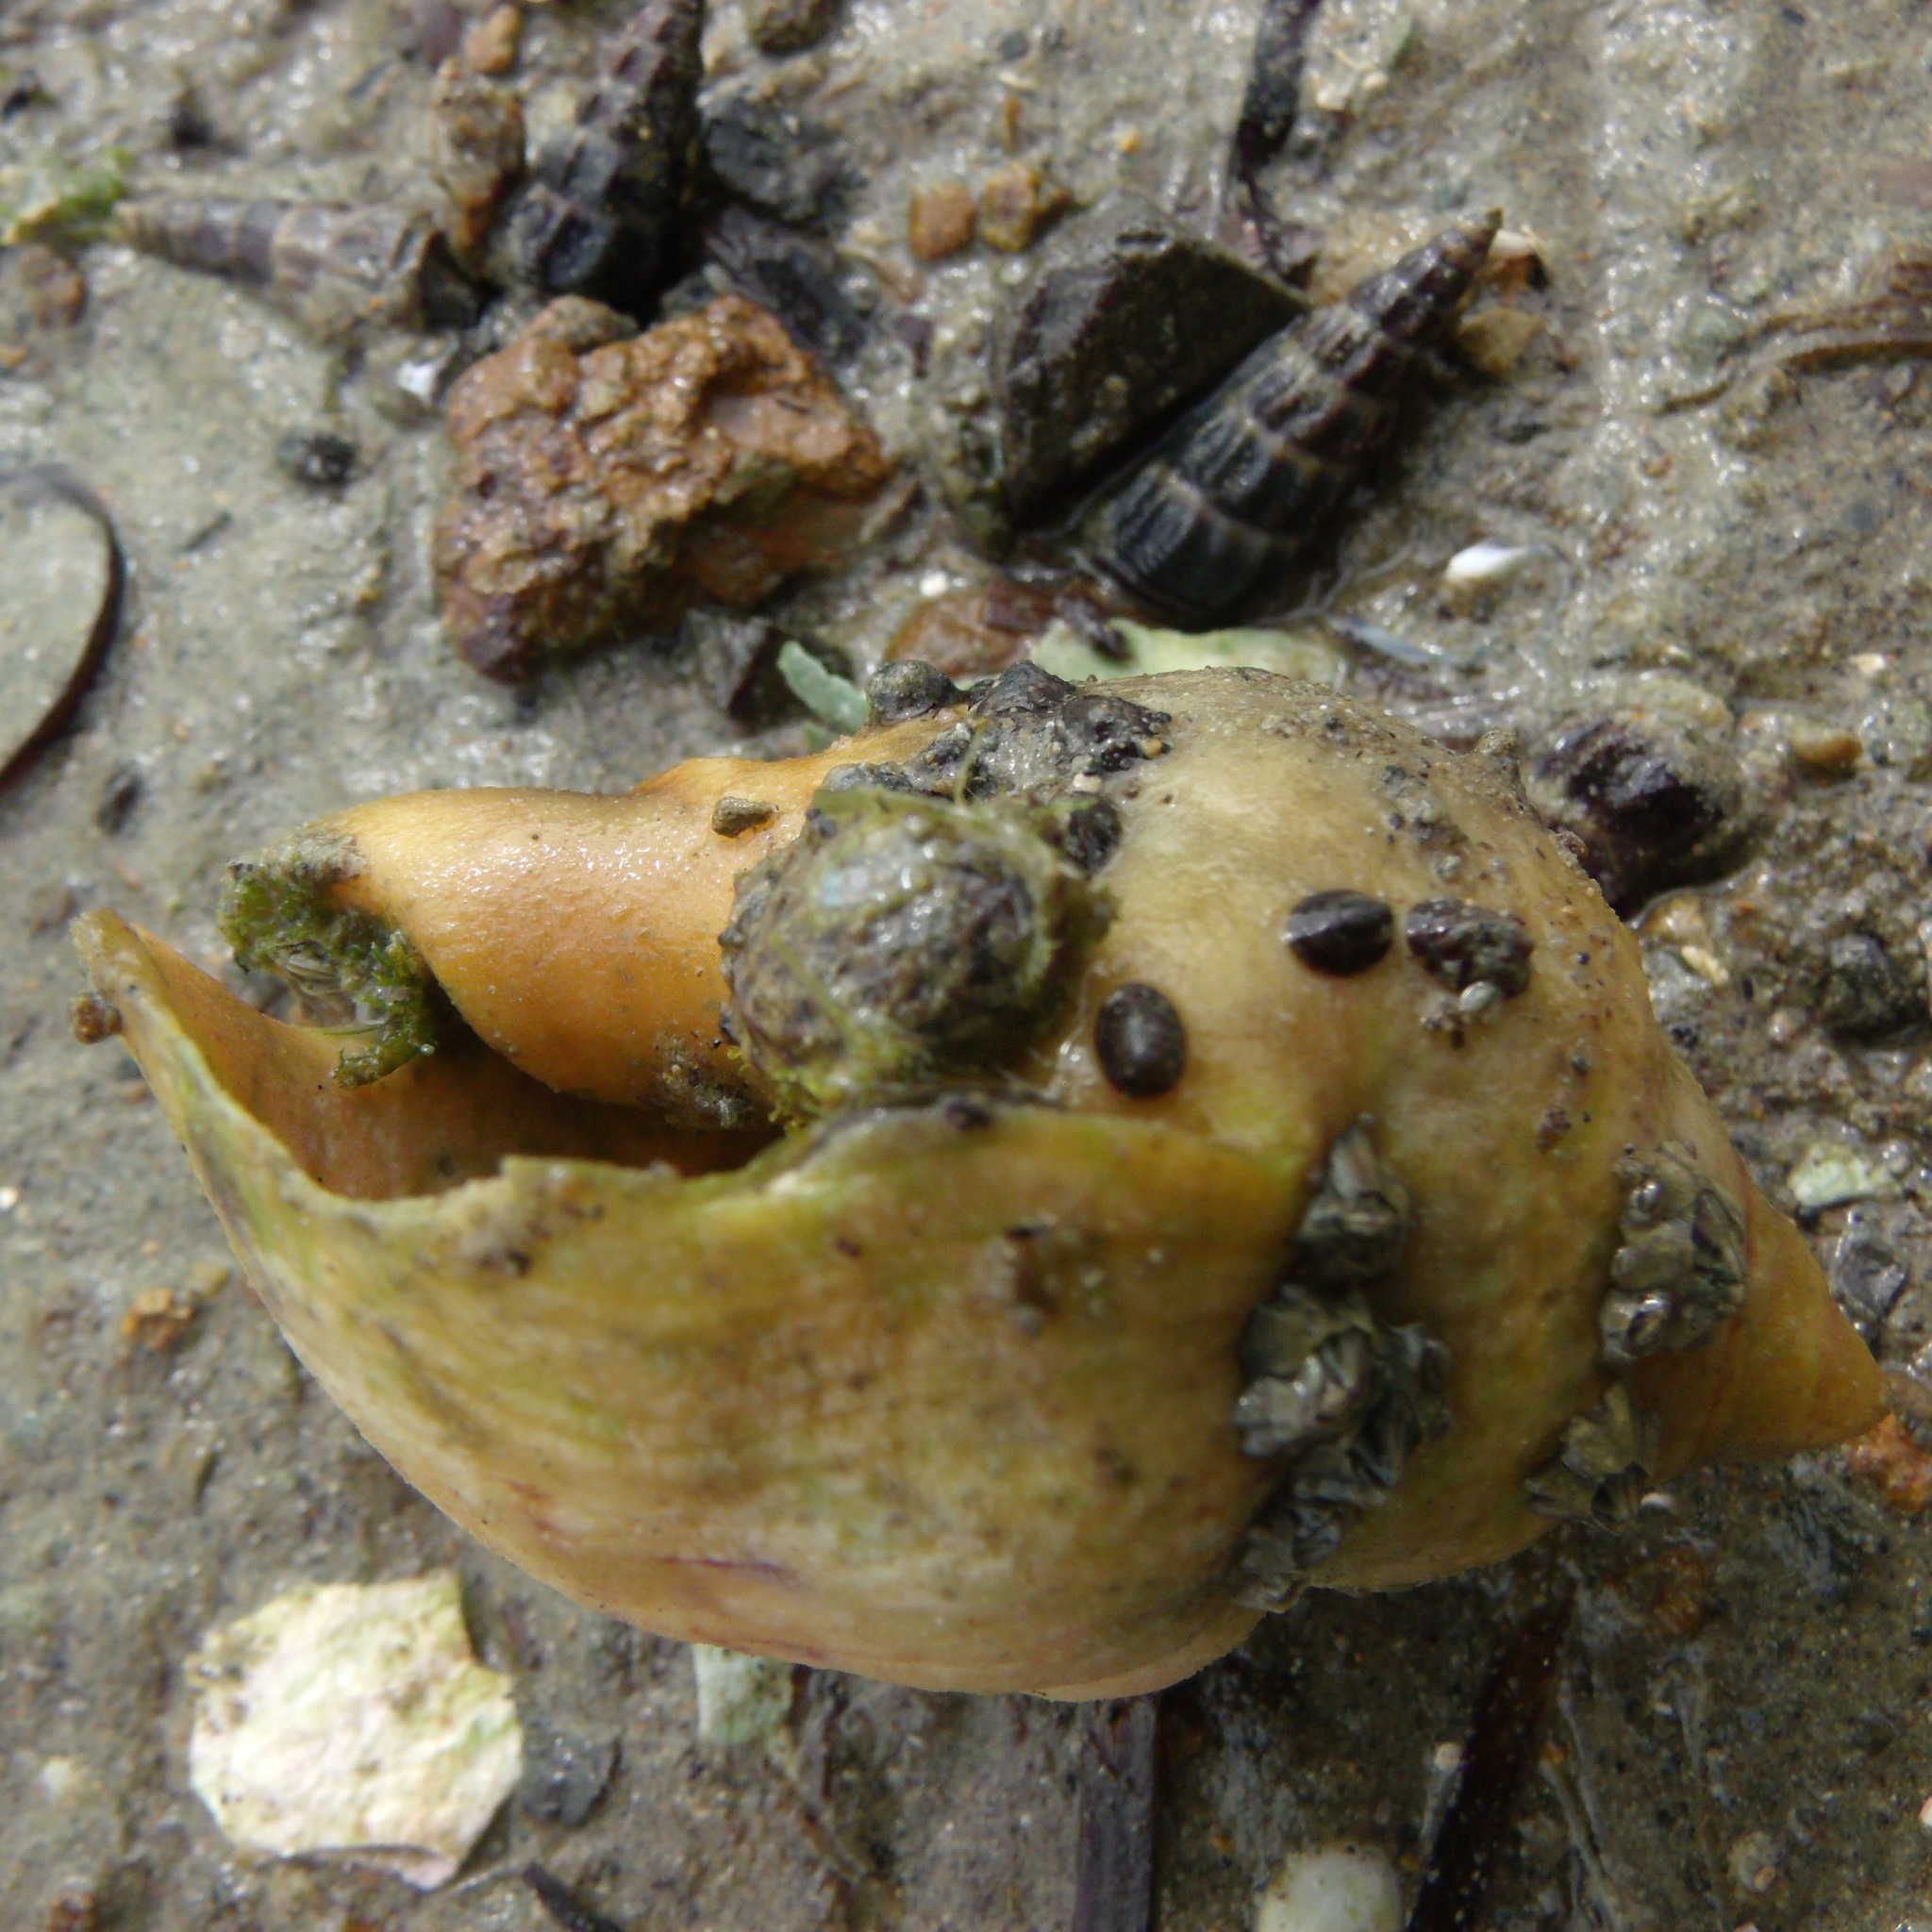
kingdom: Animalia
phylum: Mollusca
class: Gastropoda
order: Neogastropoda
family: Cominellidae
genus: Cominella
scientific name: Cominella adspersa
